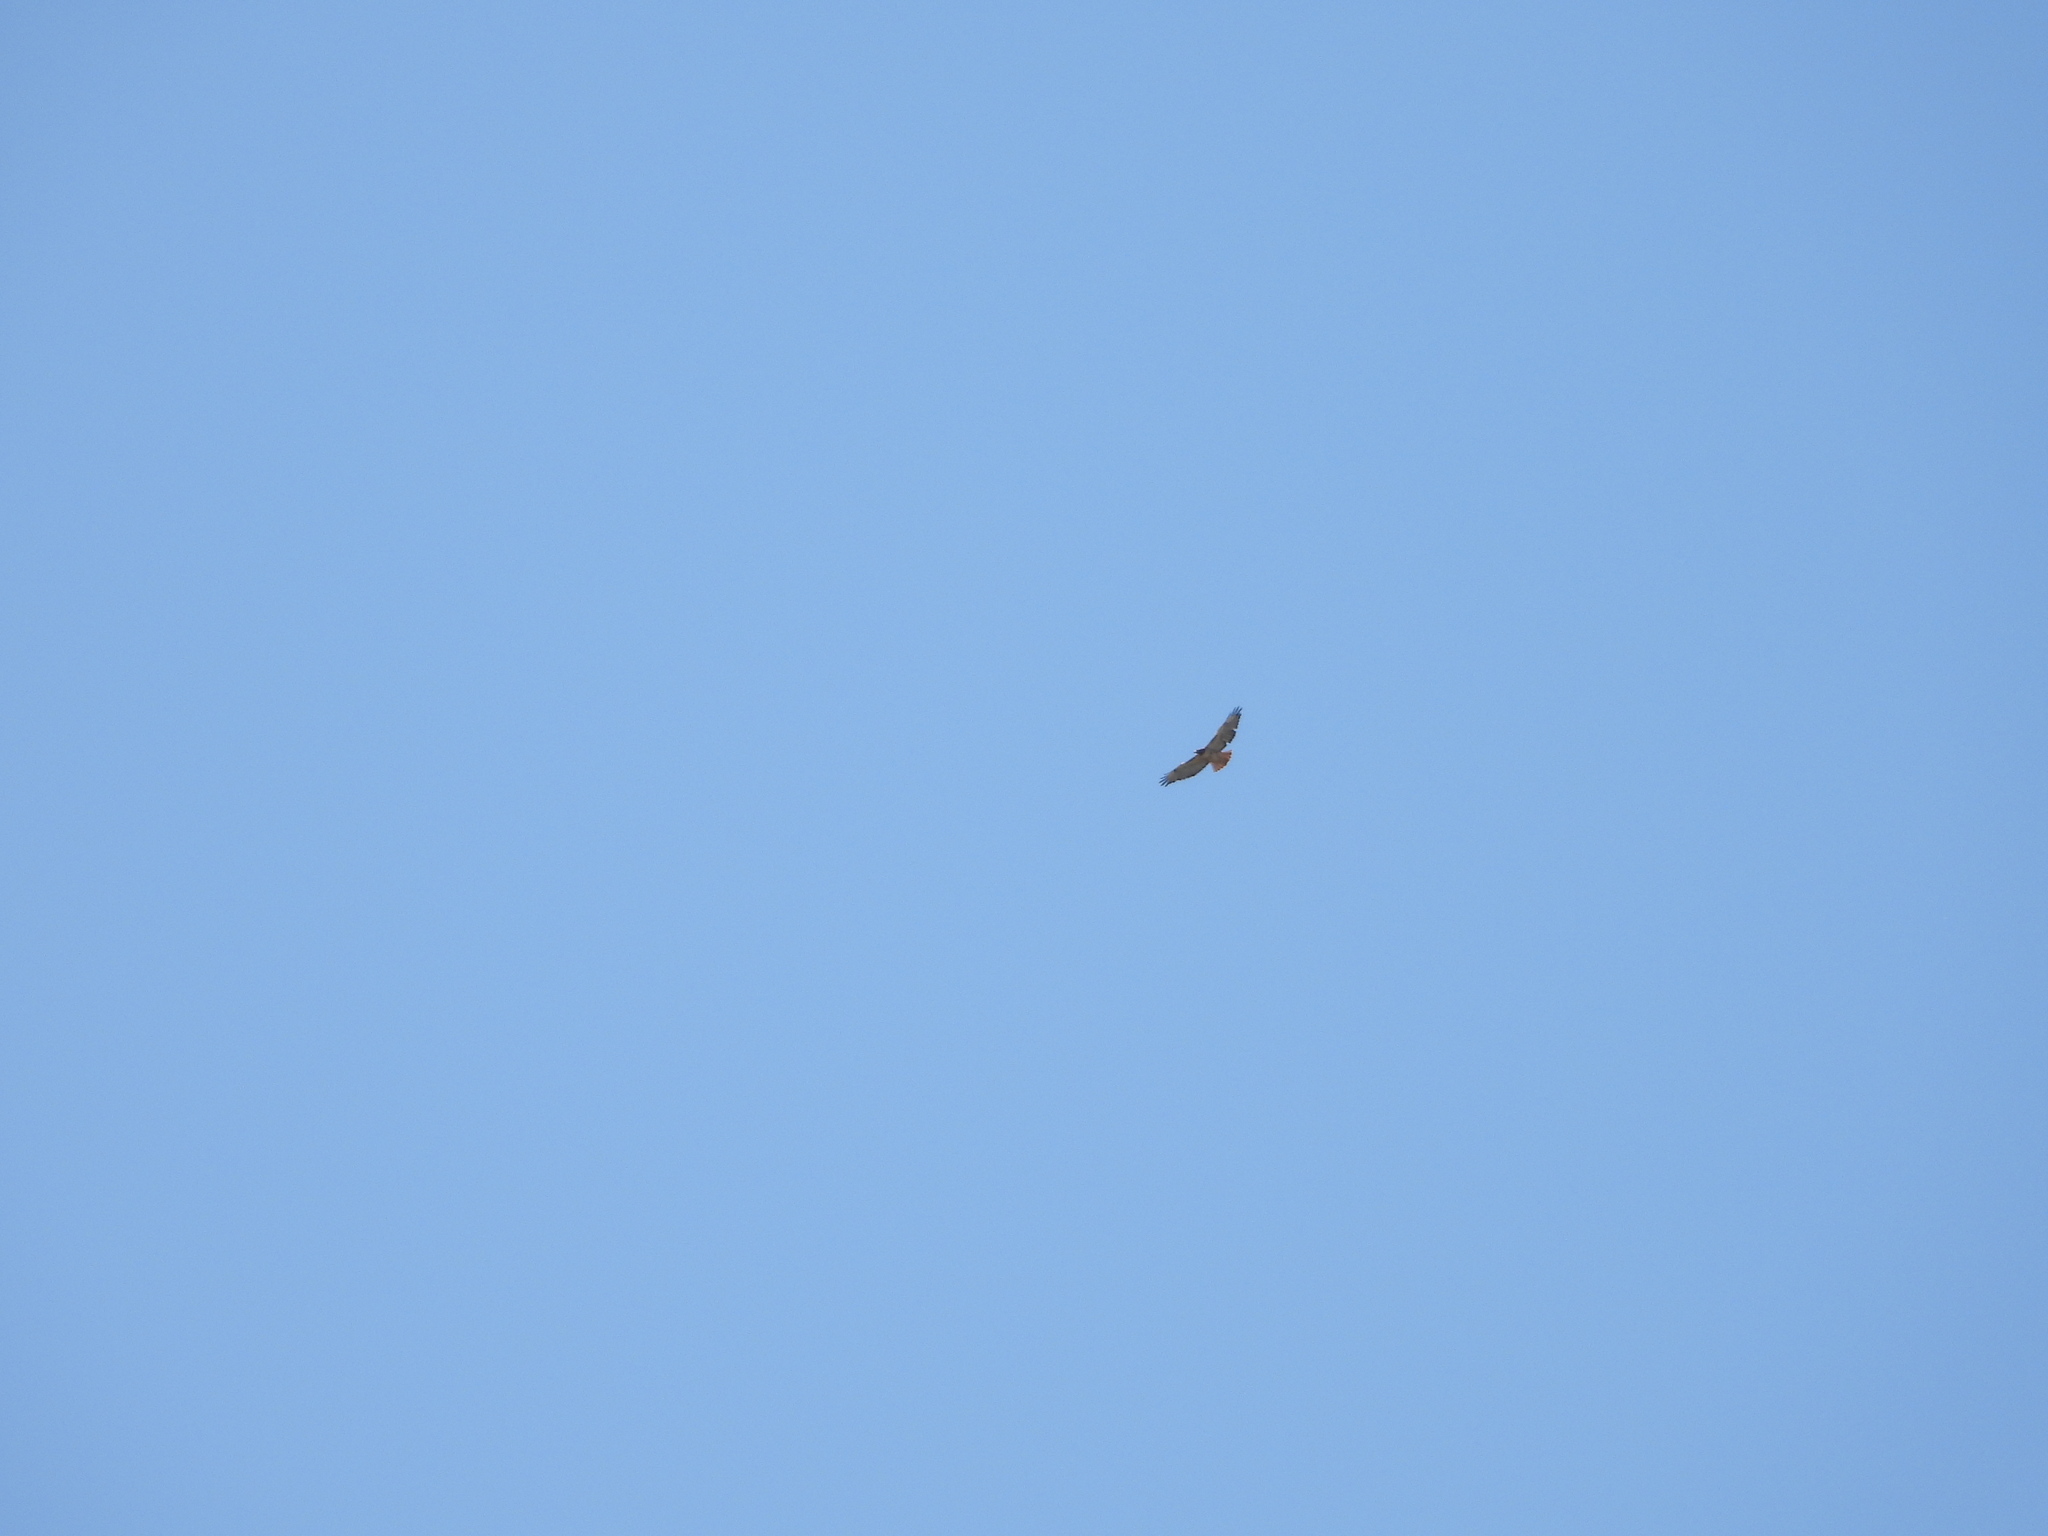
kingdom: Animalia
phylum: Chordata
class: Aves
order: Accipitriformes
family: Accipitridae
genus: Buteo
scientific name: Buteo jamaicensis
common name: Red-tailed hawk
